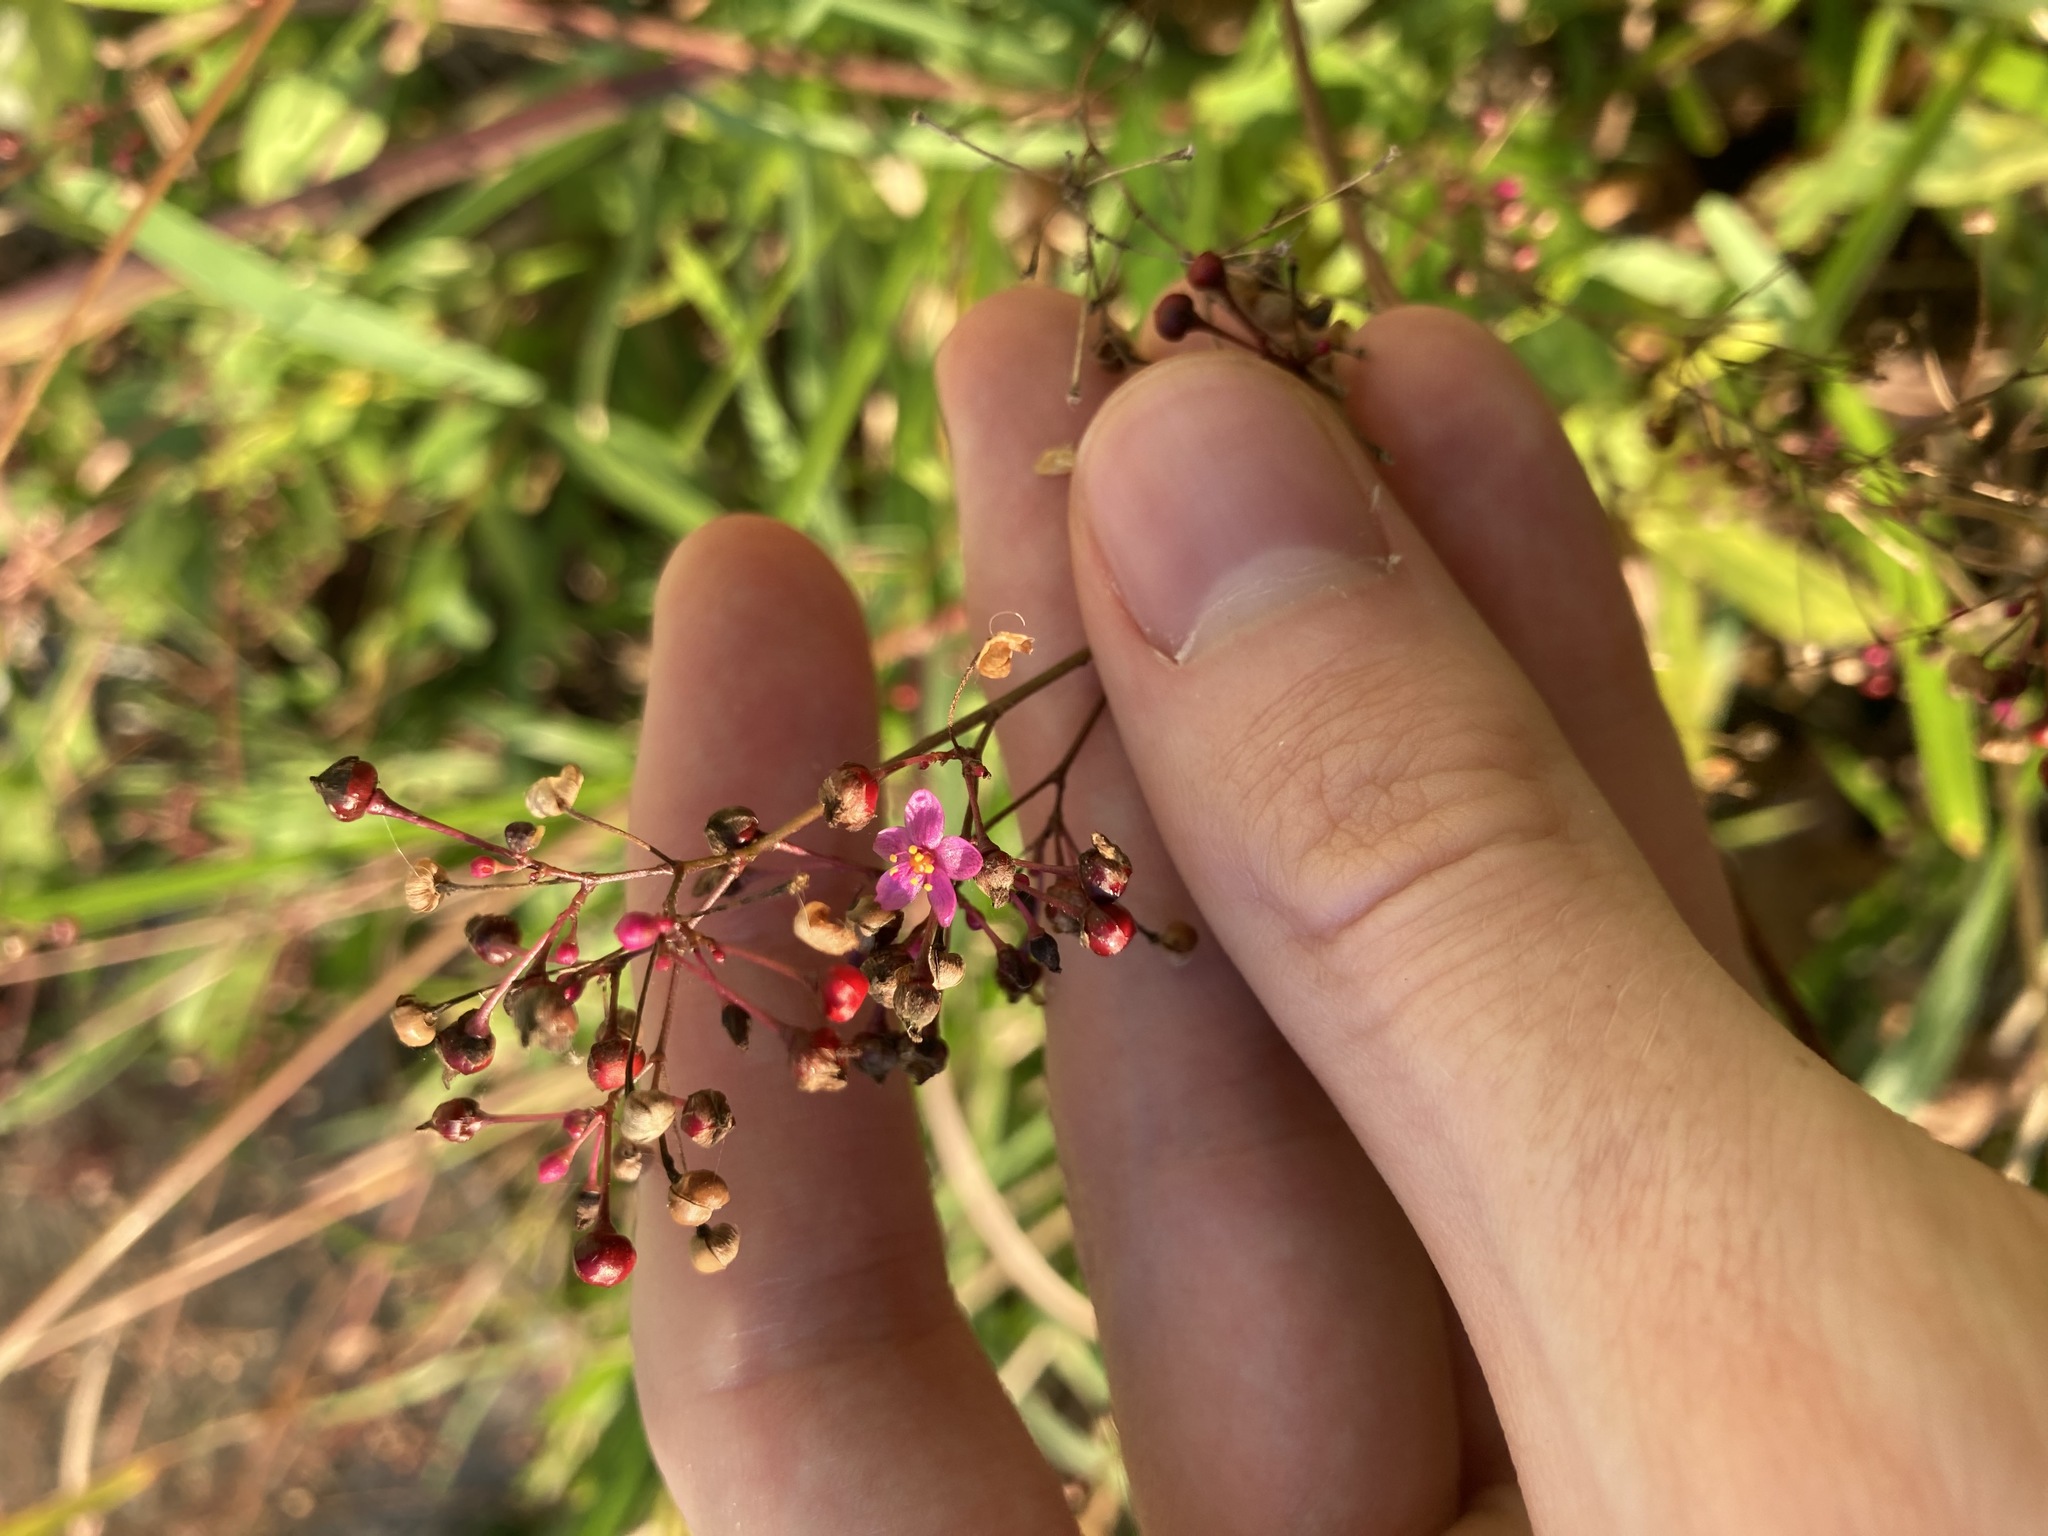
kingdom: Plantae
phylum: Tracheophyta
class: Magnoliopsida
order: Caryophyllales
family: Talinaceae
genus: Talinum
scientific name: Talinum paniculatum
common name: Jewels of opar
